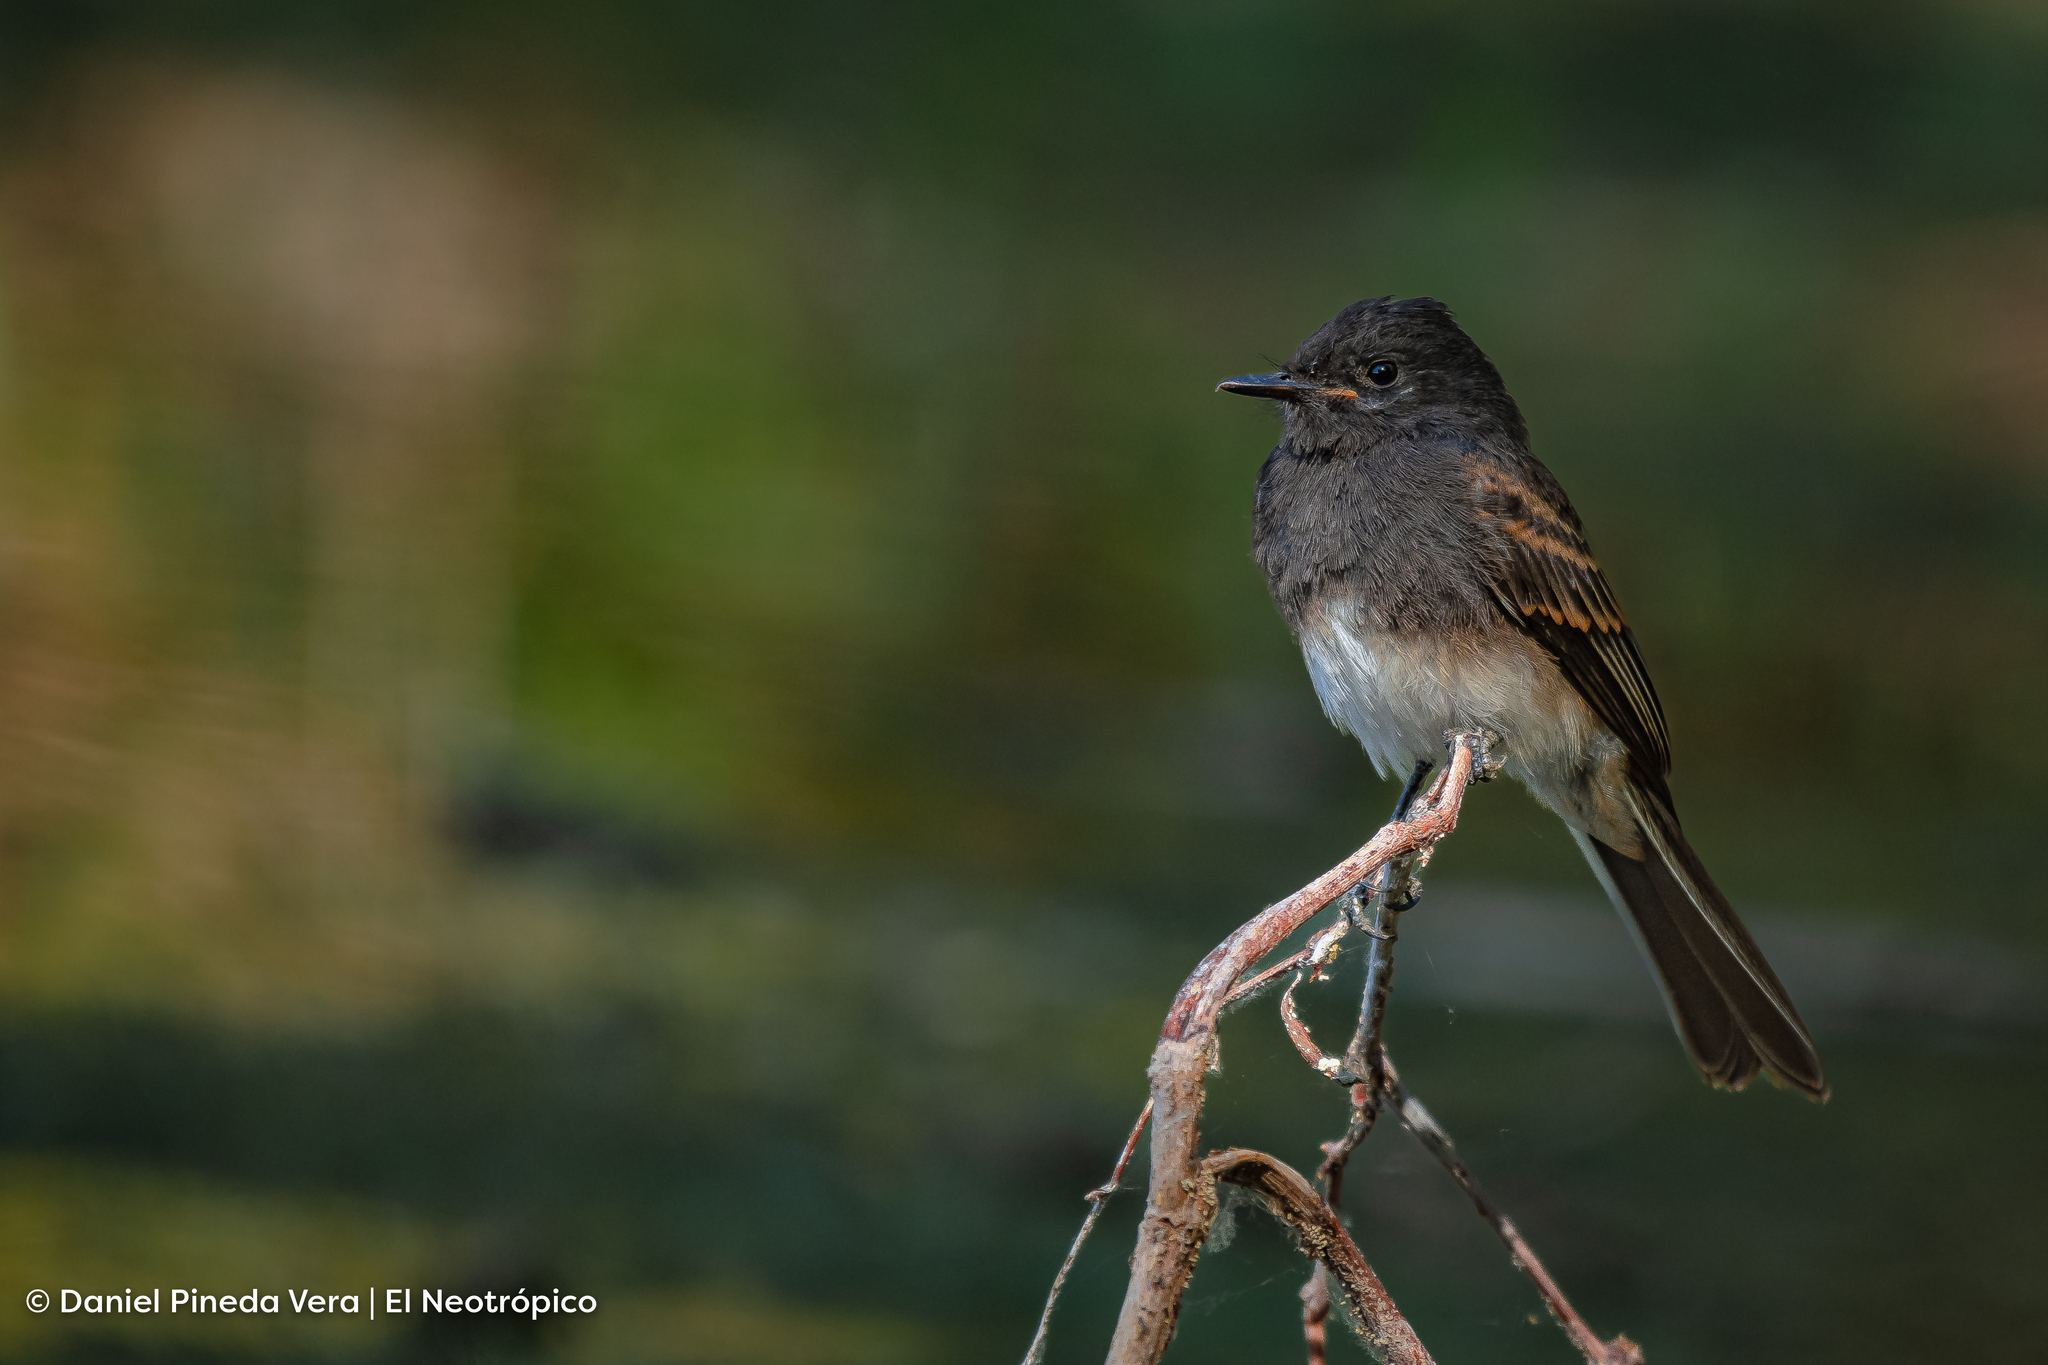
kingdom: Animalia
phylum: Chordata
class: Aves
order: Passeriformes
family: Tyrannidae
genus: Sayornis
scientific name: Sayornis nigricans
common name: Black phoebe
